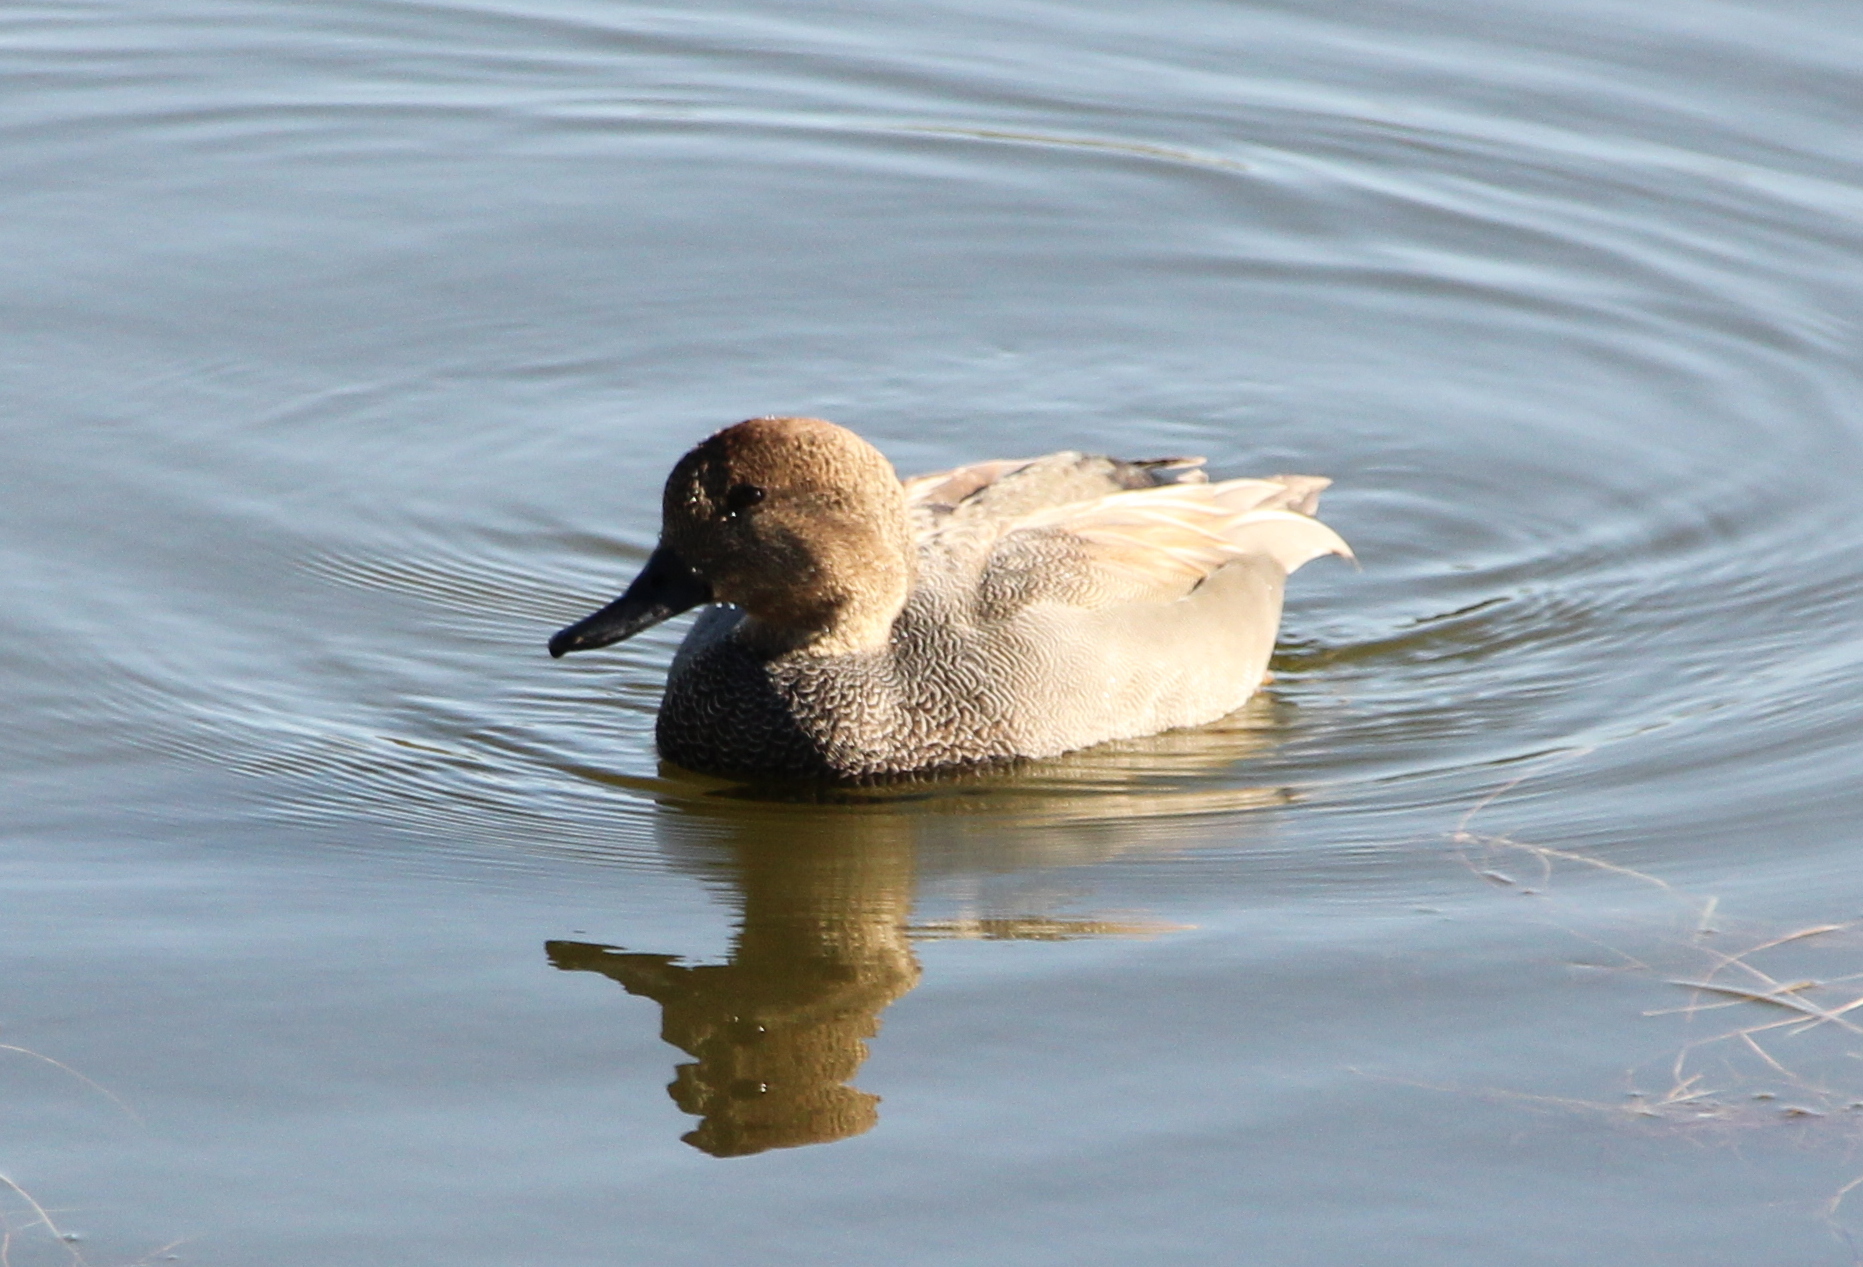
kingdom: Animalia
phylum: Chordata
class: Aves
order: Anseriformes
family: Anatidae
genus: Mareca
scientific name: Mareca strepera
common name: Gadwall
